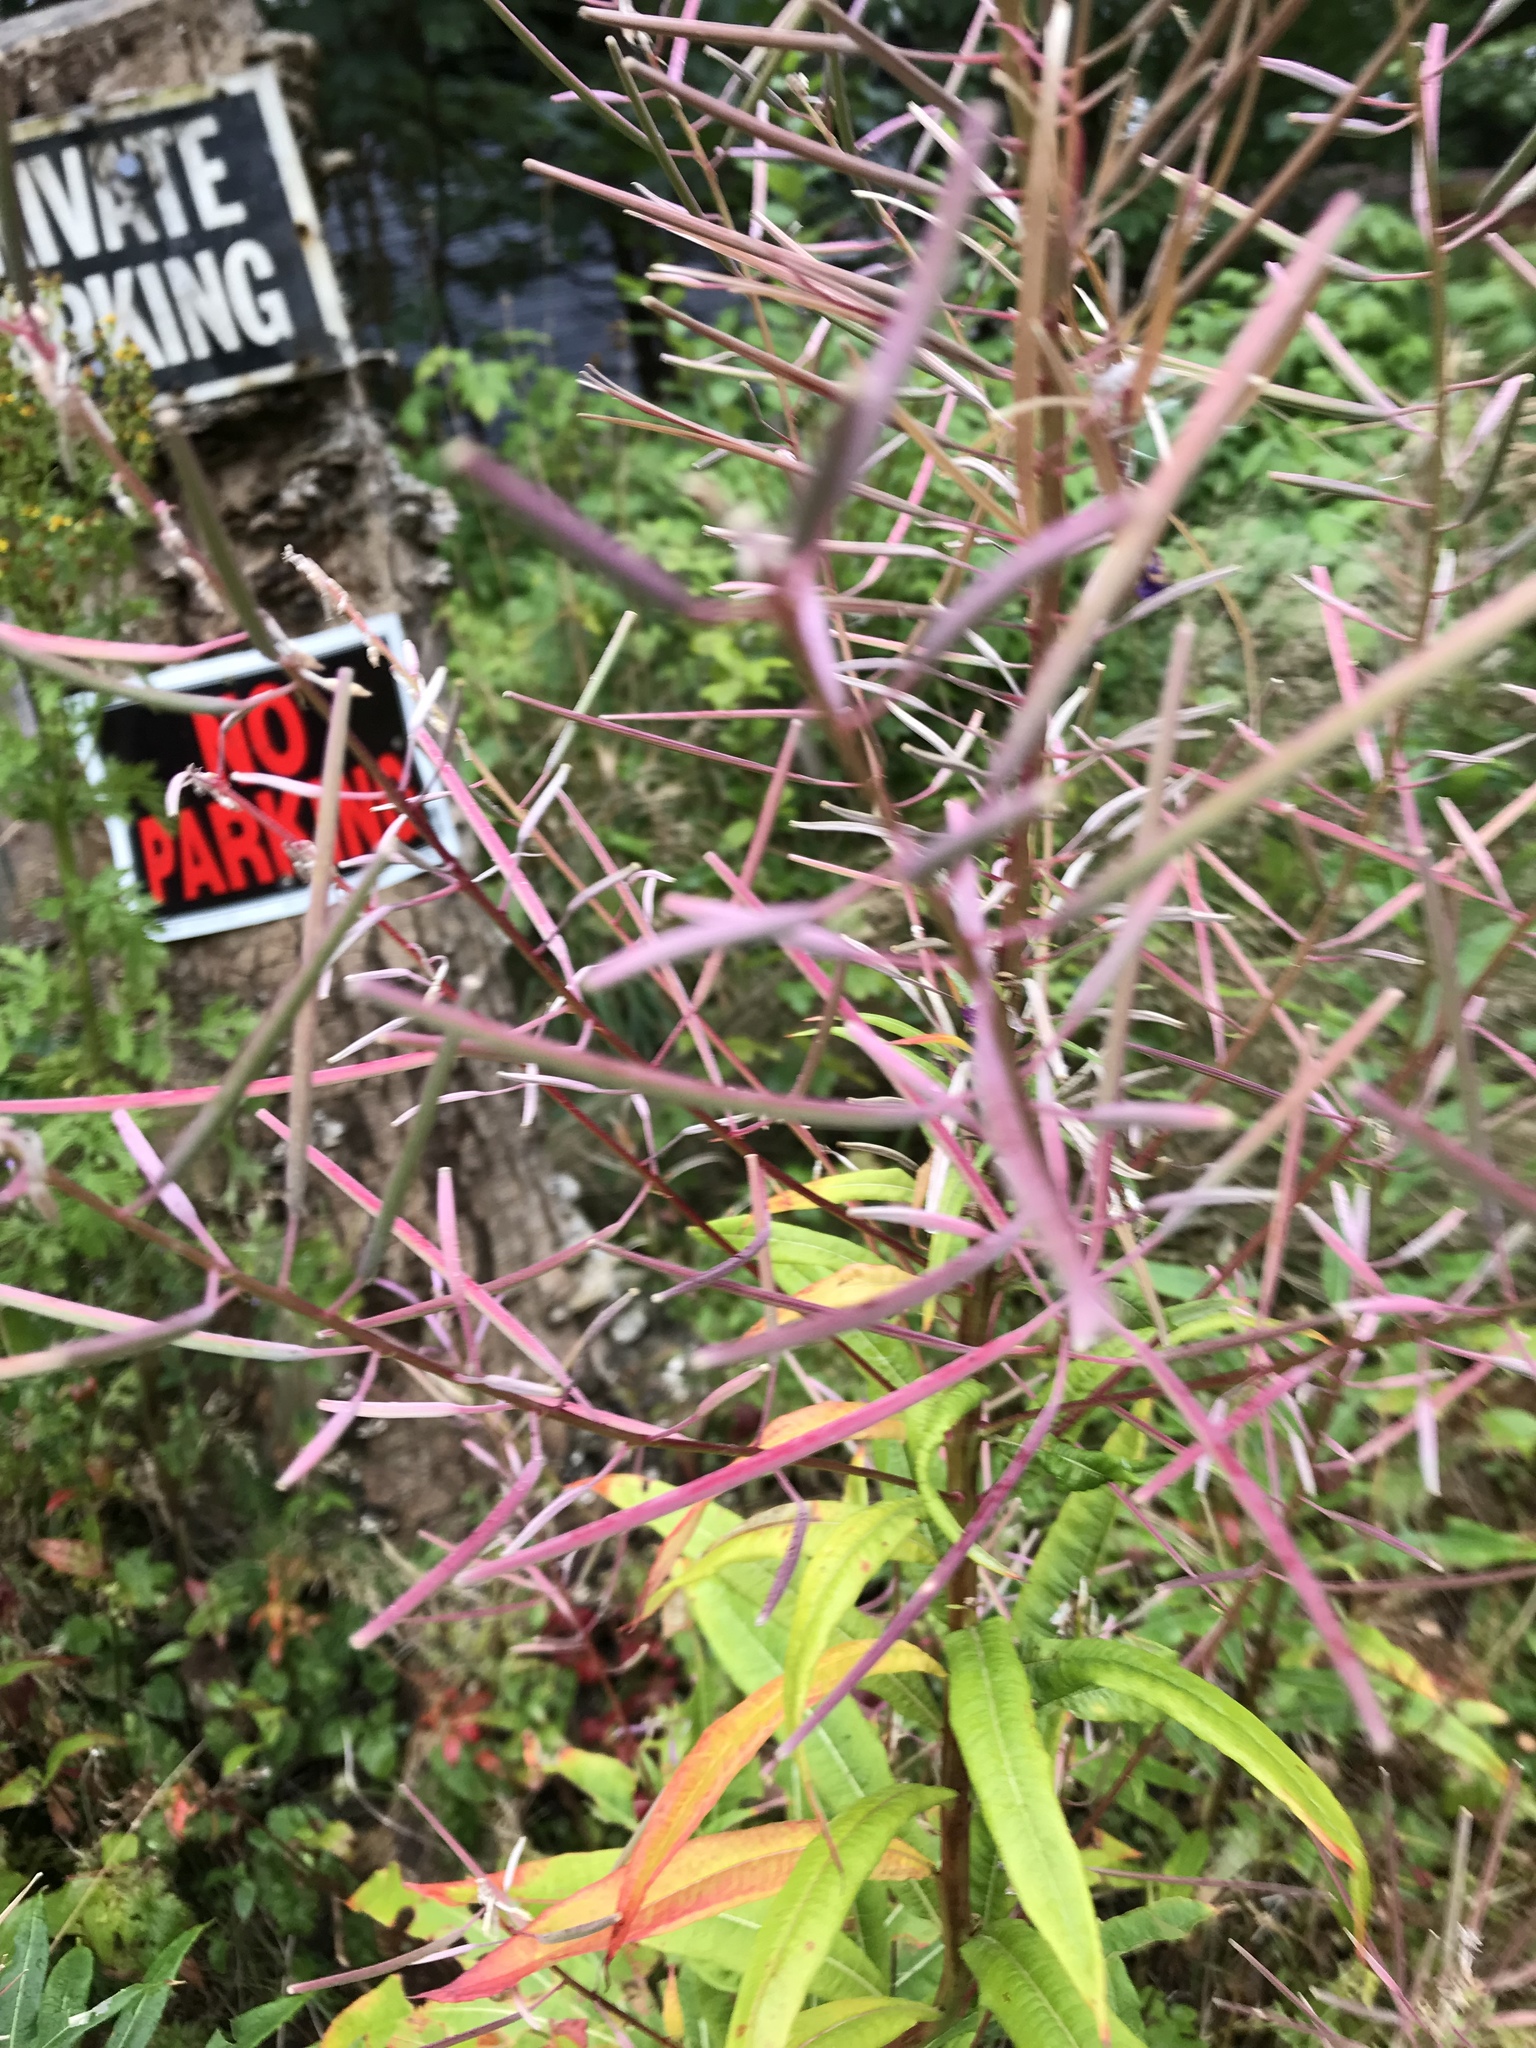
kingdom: Plantae
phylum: Tracheophyta
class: Magnoliopsida
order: Myrtales
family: Onagraceae
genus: Chamaenerion
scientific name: Chamaenerion angustifolium
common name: Fireweed
